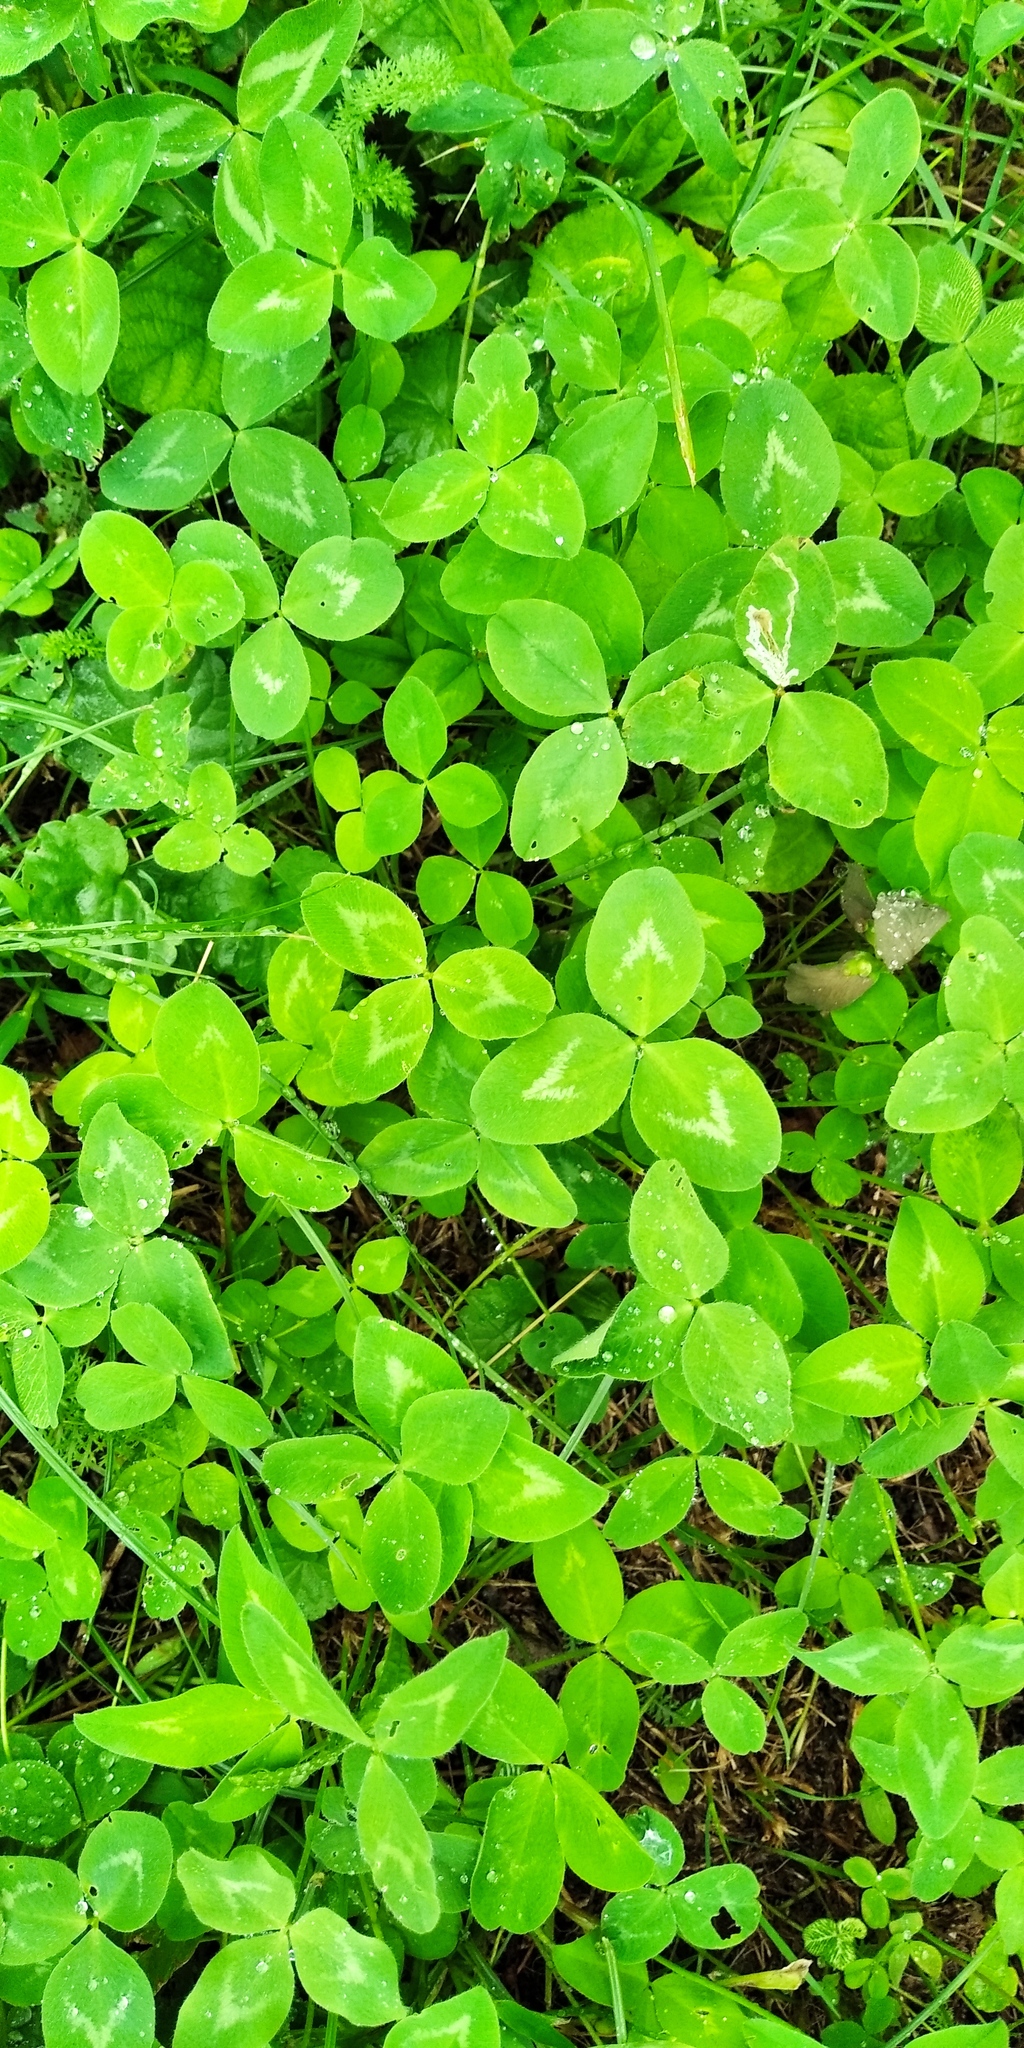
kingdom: Plantae
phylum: Tracheophyta
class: Magnoliopsida
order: Fabales
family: Fabaceae
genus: Trifolium
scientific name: Trifolium repens
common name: White clover
